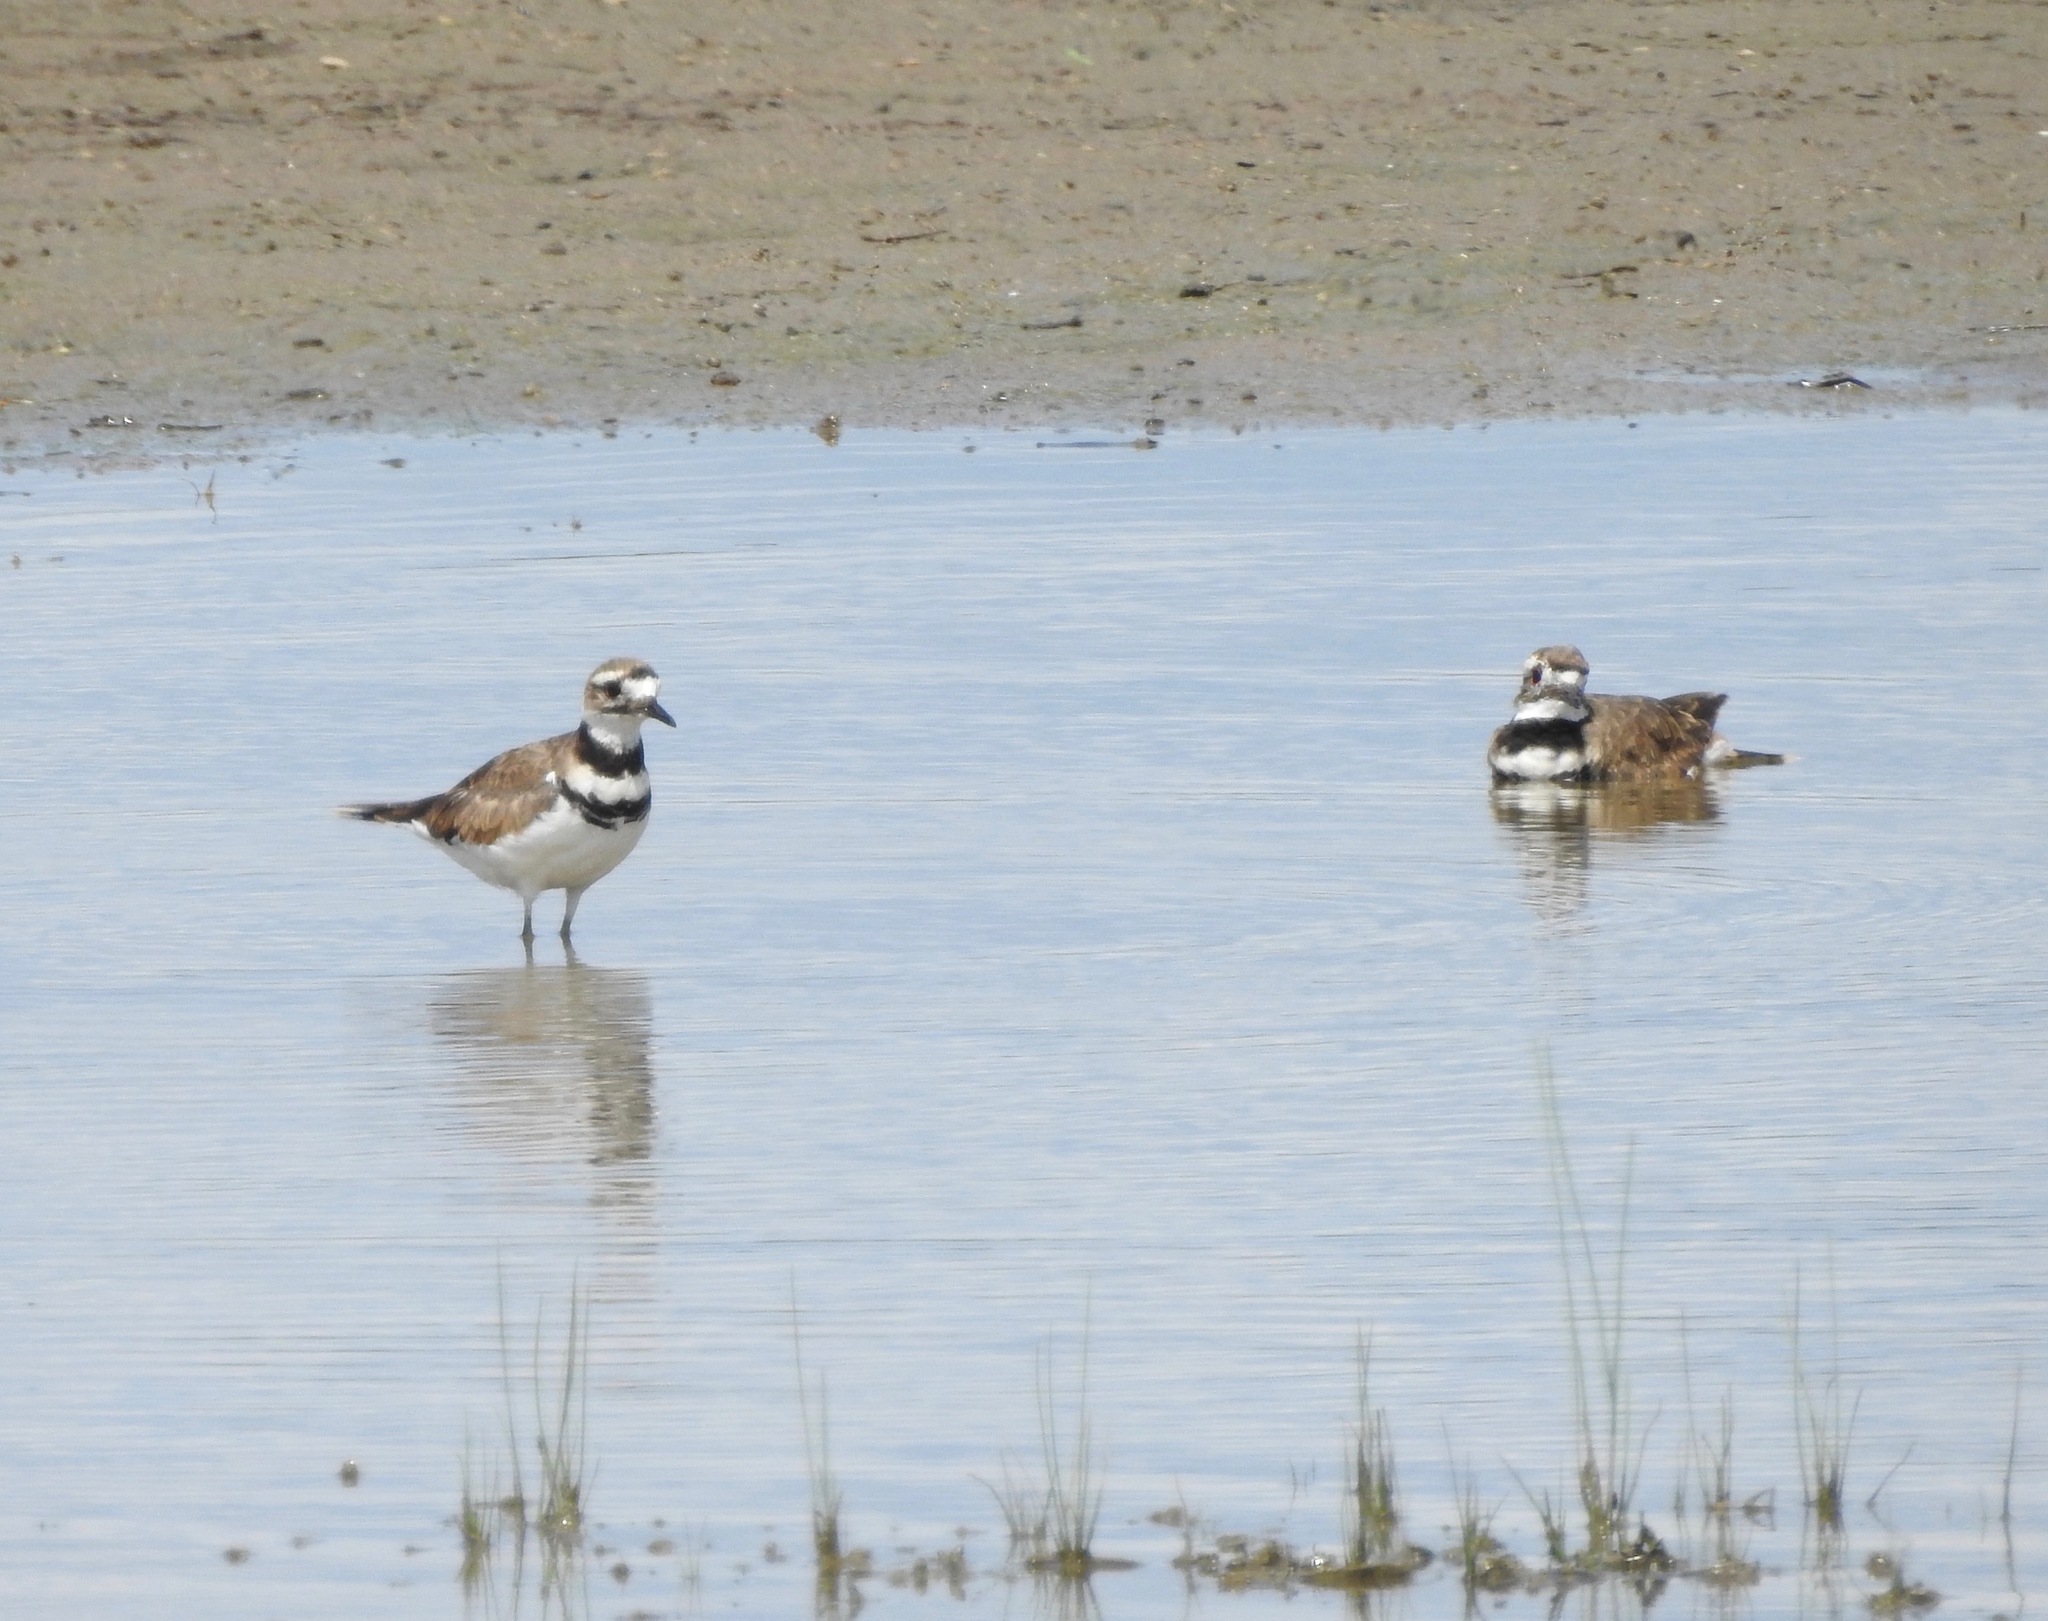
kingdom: Animalia
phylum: Chordata
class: Aves
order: Charadriiformes
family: Charadriidae
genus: Charadrius
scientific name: Charadrius vociferus
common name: Killdeer
